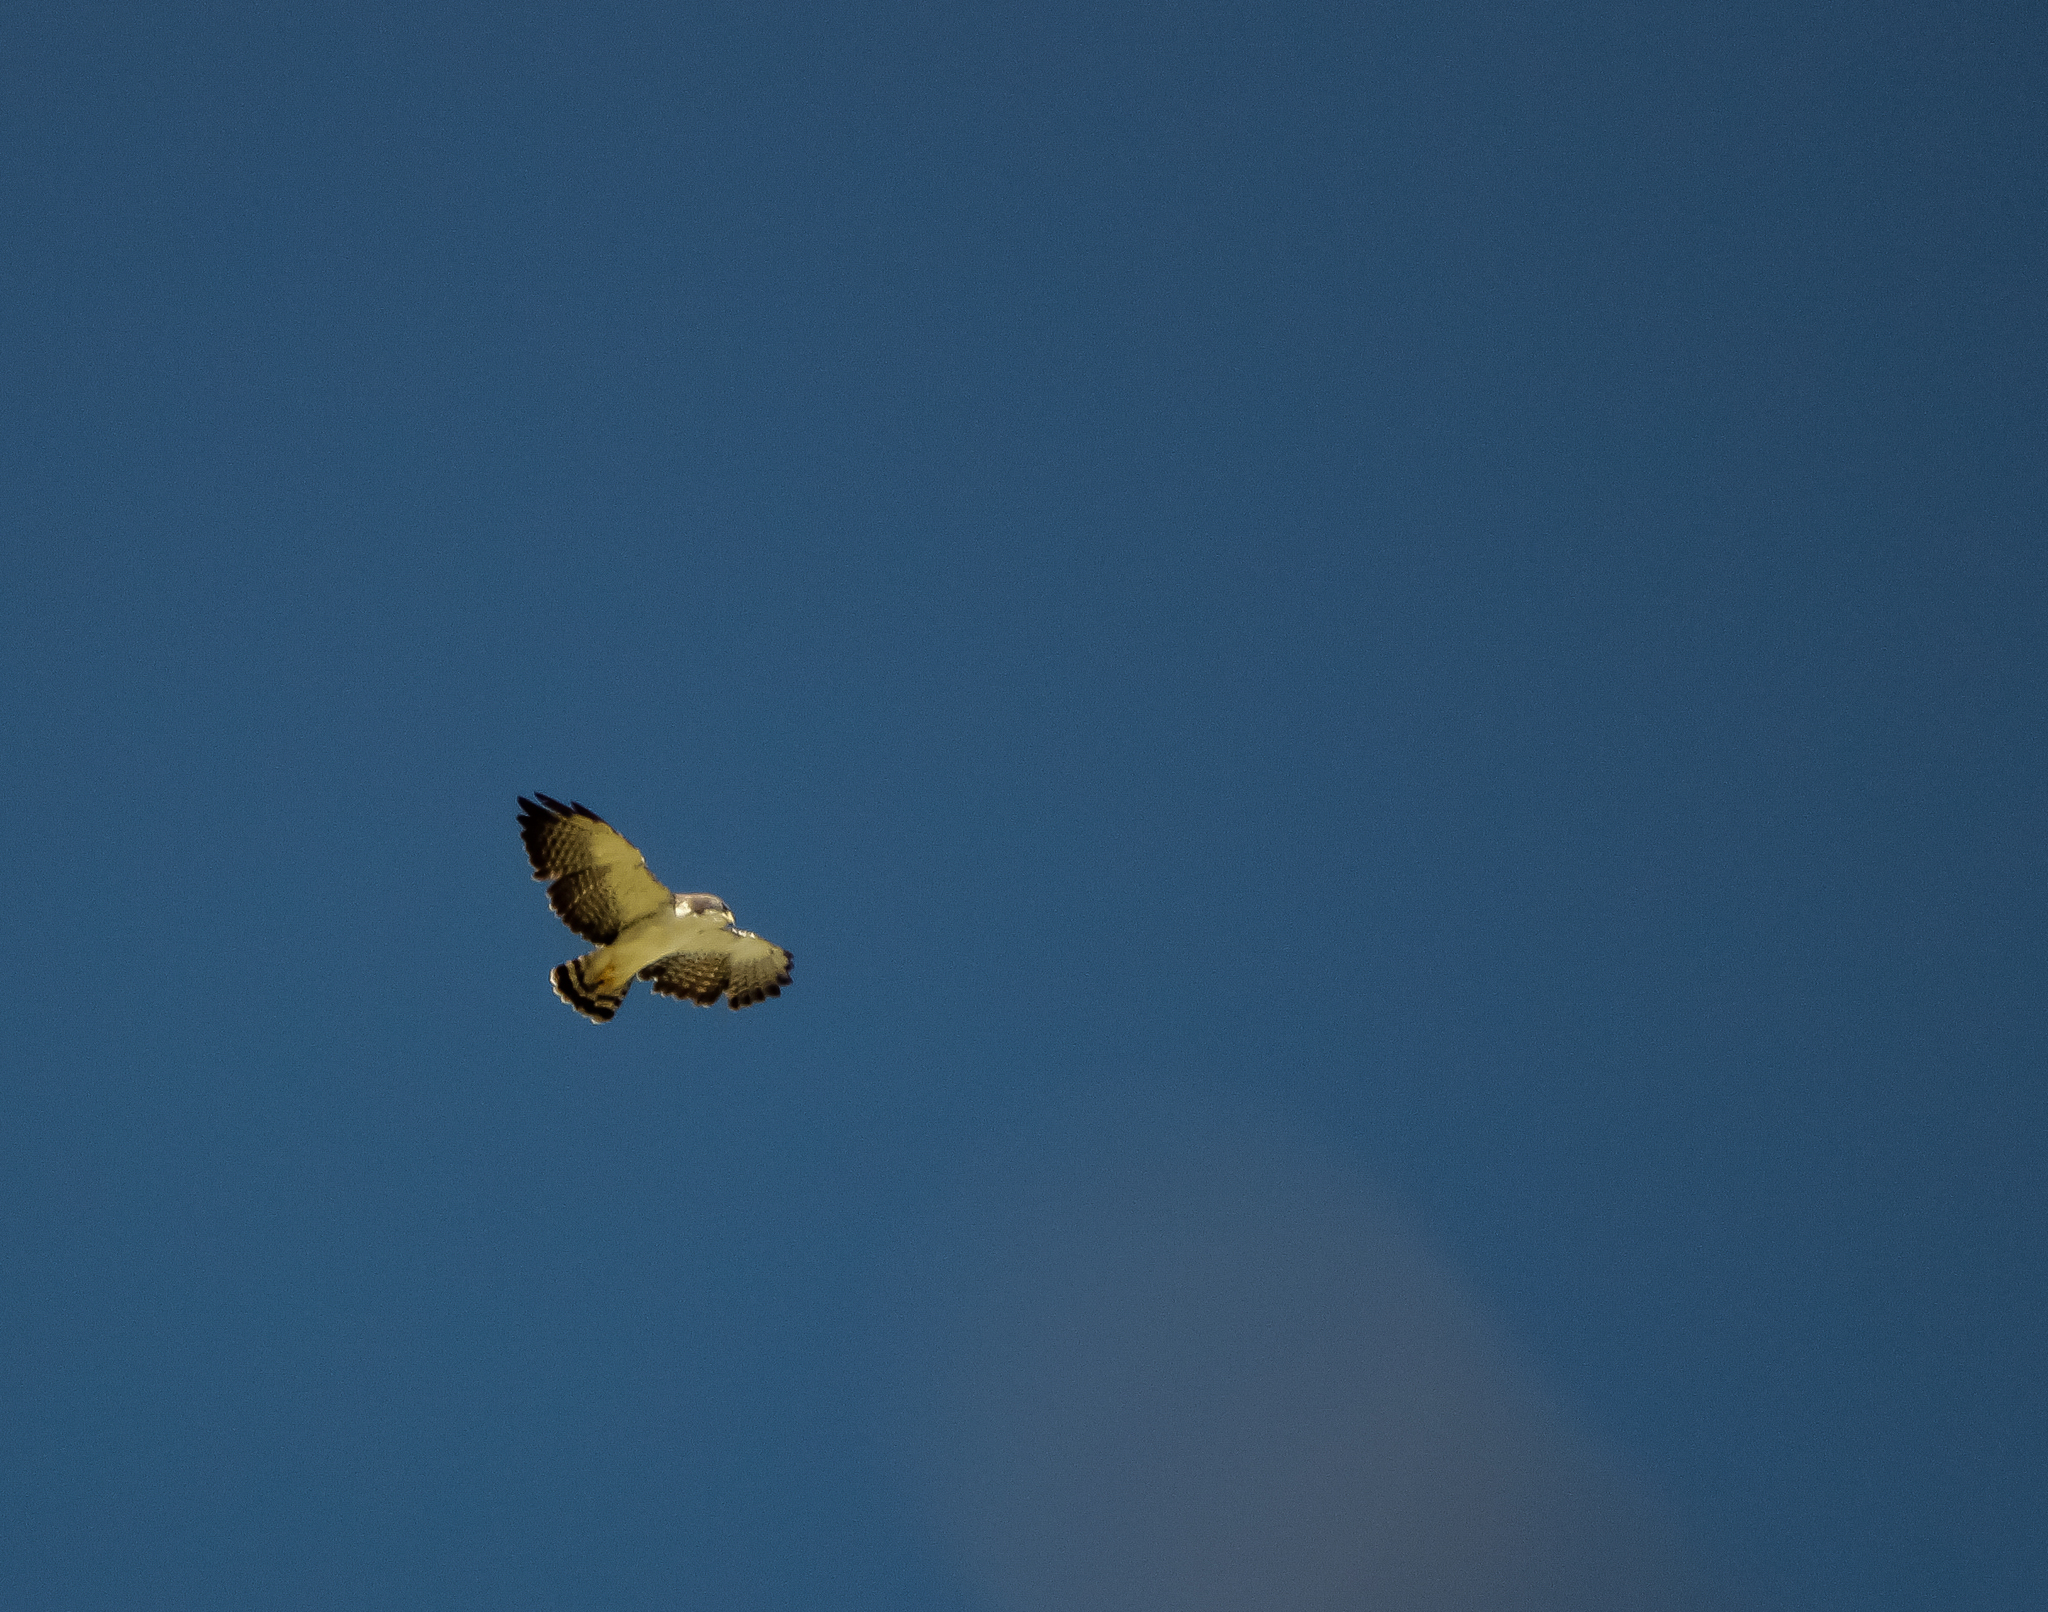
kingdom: Animalia
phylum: Chordata
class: Aves
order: Accipitriformes
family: Accipitridae
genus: Buteo
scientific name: Buteo brachyurus
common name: Short-tailed hawk
